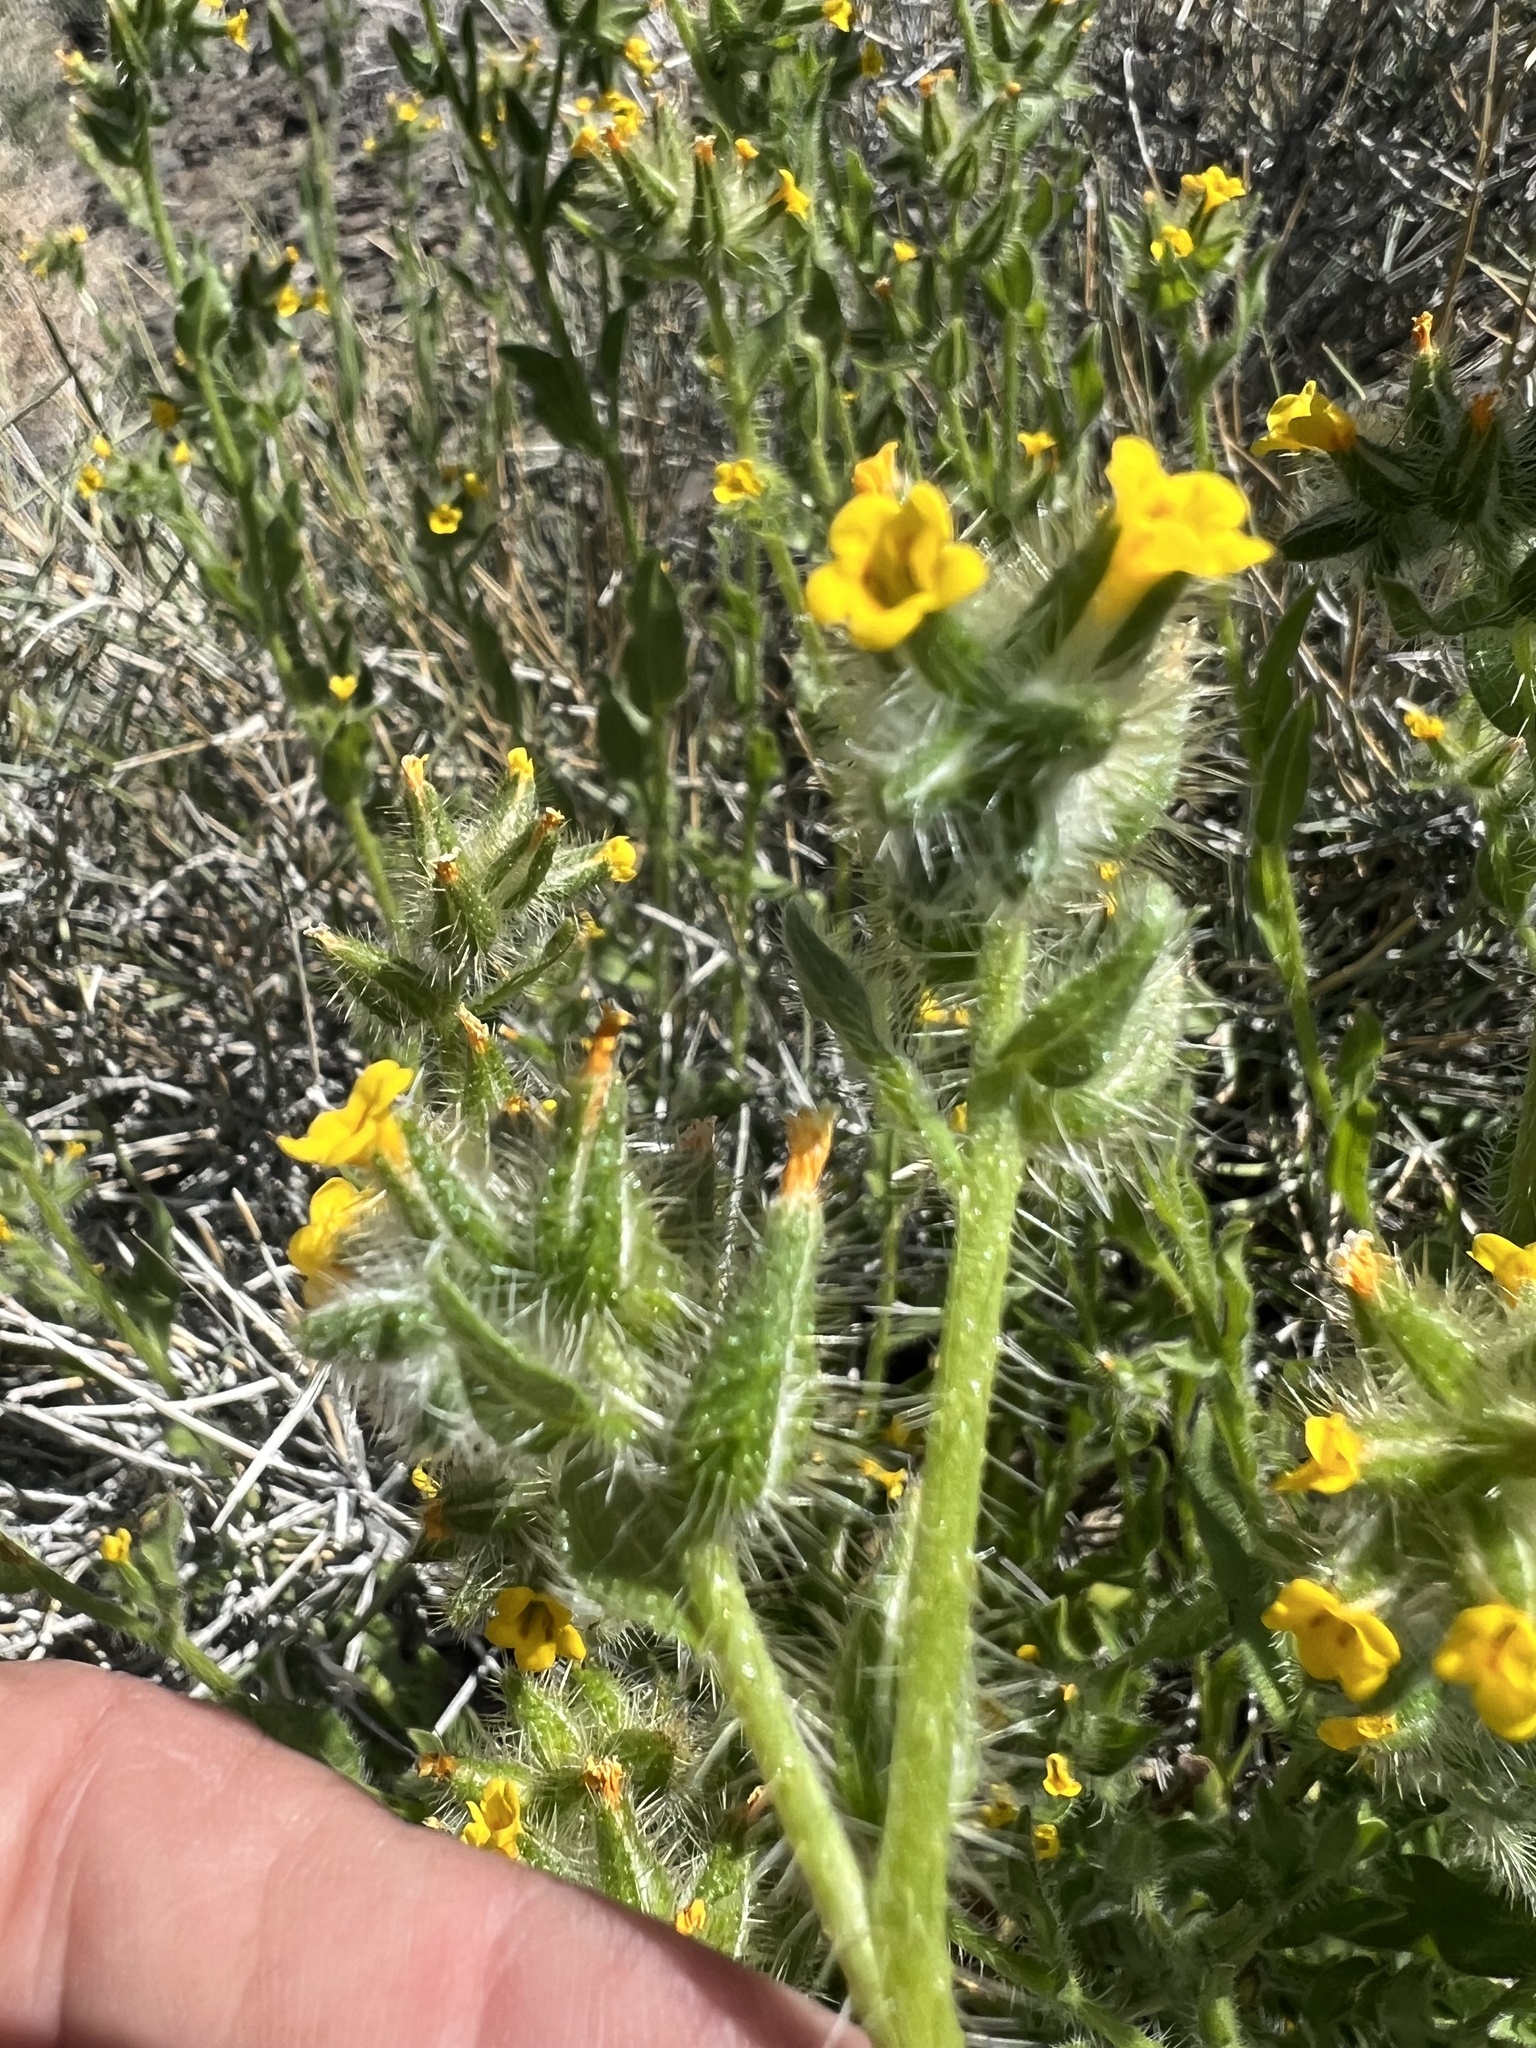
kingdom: Plantae
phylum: Tracheophyta
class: Magnoliopsida
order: Boraginales
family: Boraginaceae
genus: Amsinckia
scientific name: Amsinckia tessellata
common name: Tessellate fiddleneck
